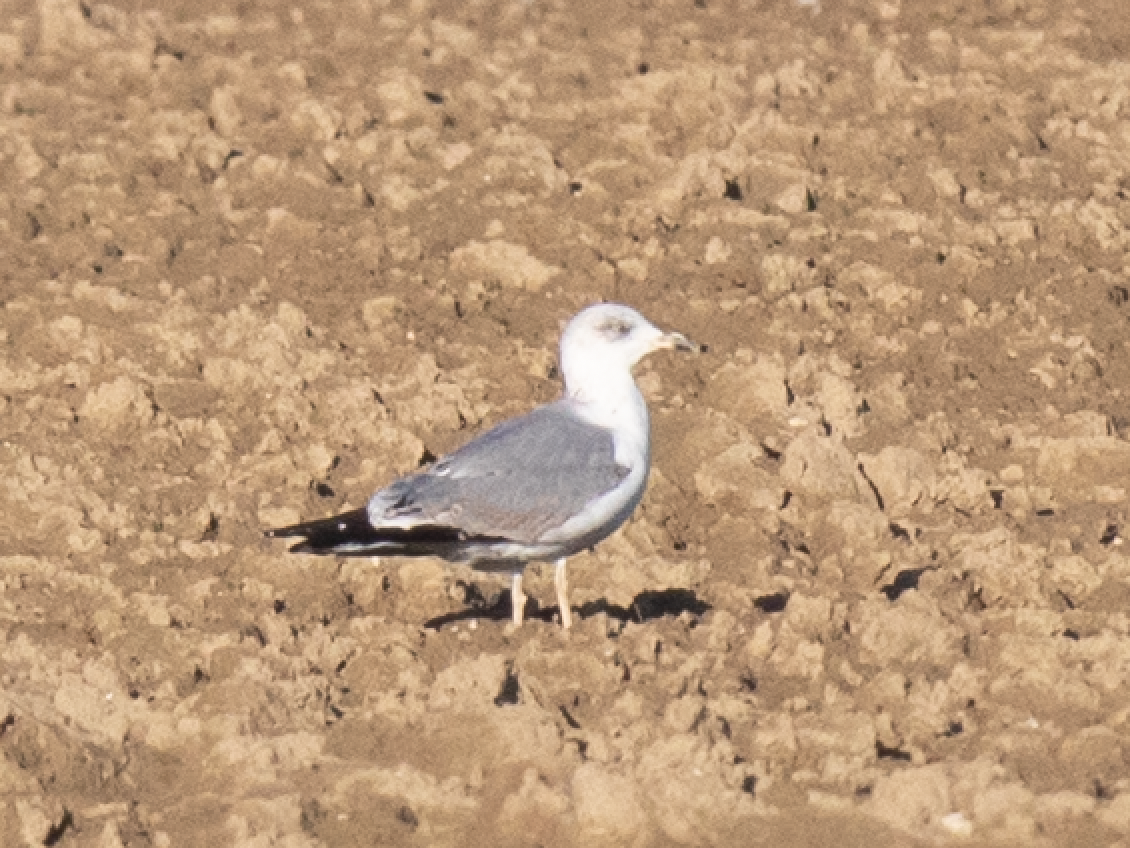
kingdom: Animalia
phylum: Chordata
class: Aves
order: Charadriiformes
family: Laridae
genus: Larus
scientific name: Larus michahellis
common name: Yellow-legged gull
